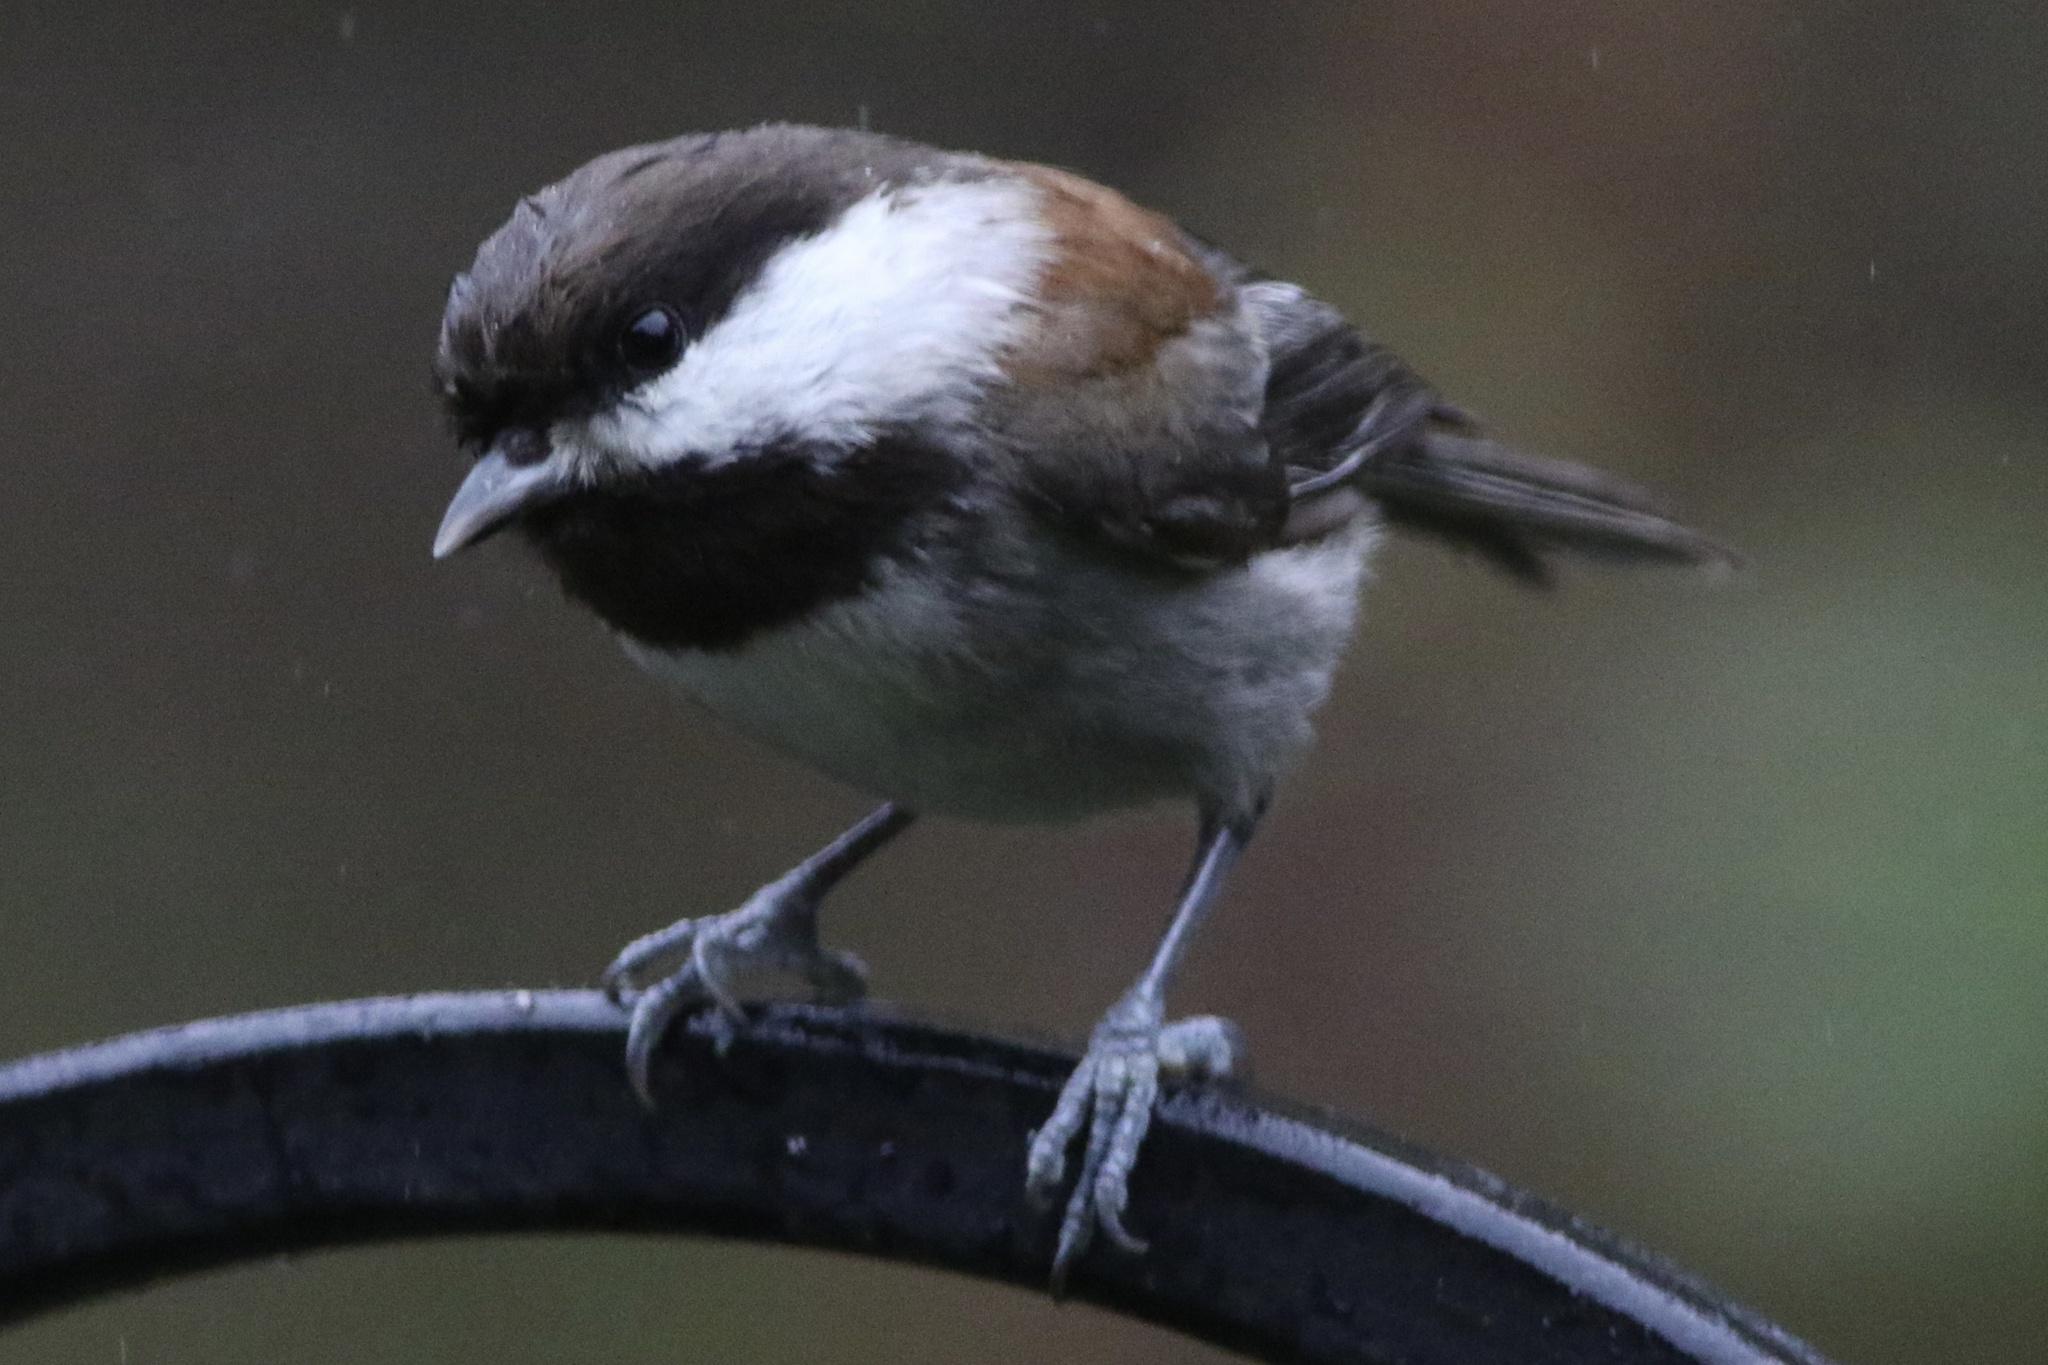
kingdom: Animalia
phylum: Chordata
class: Aves
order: Passeriformes
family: Paridae
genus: Poecile
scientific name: Poecile rufescens
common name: Chestnut-backed chickadee
